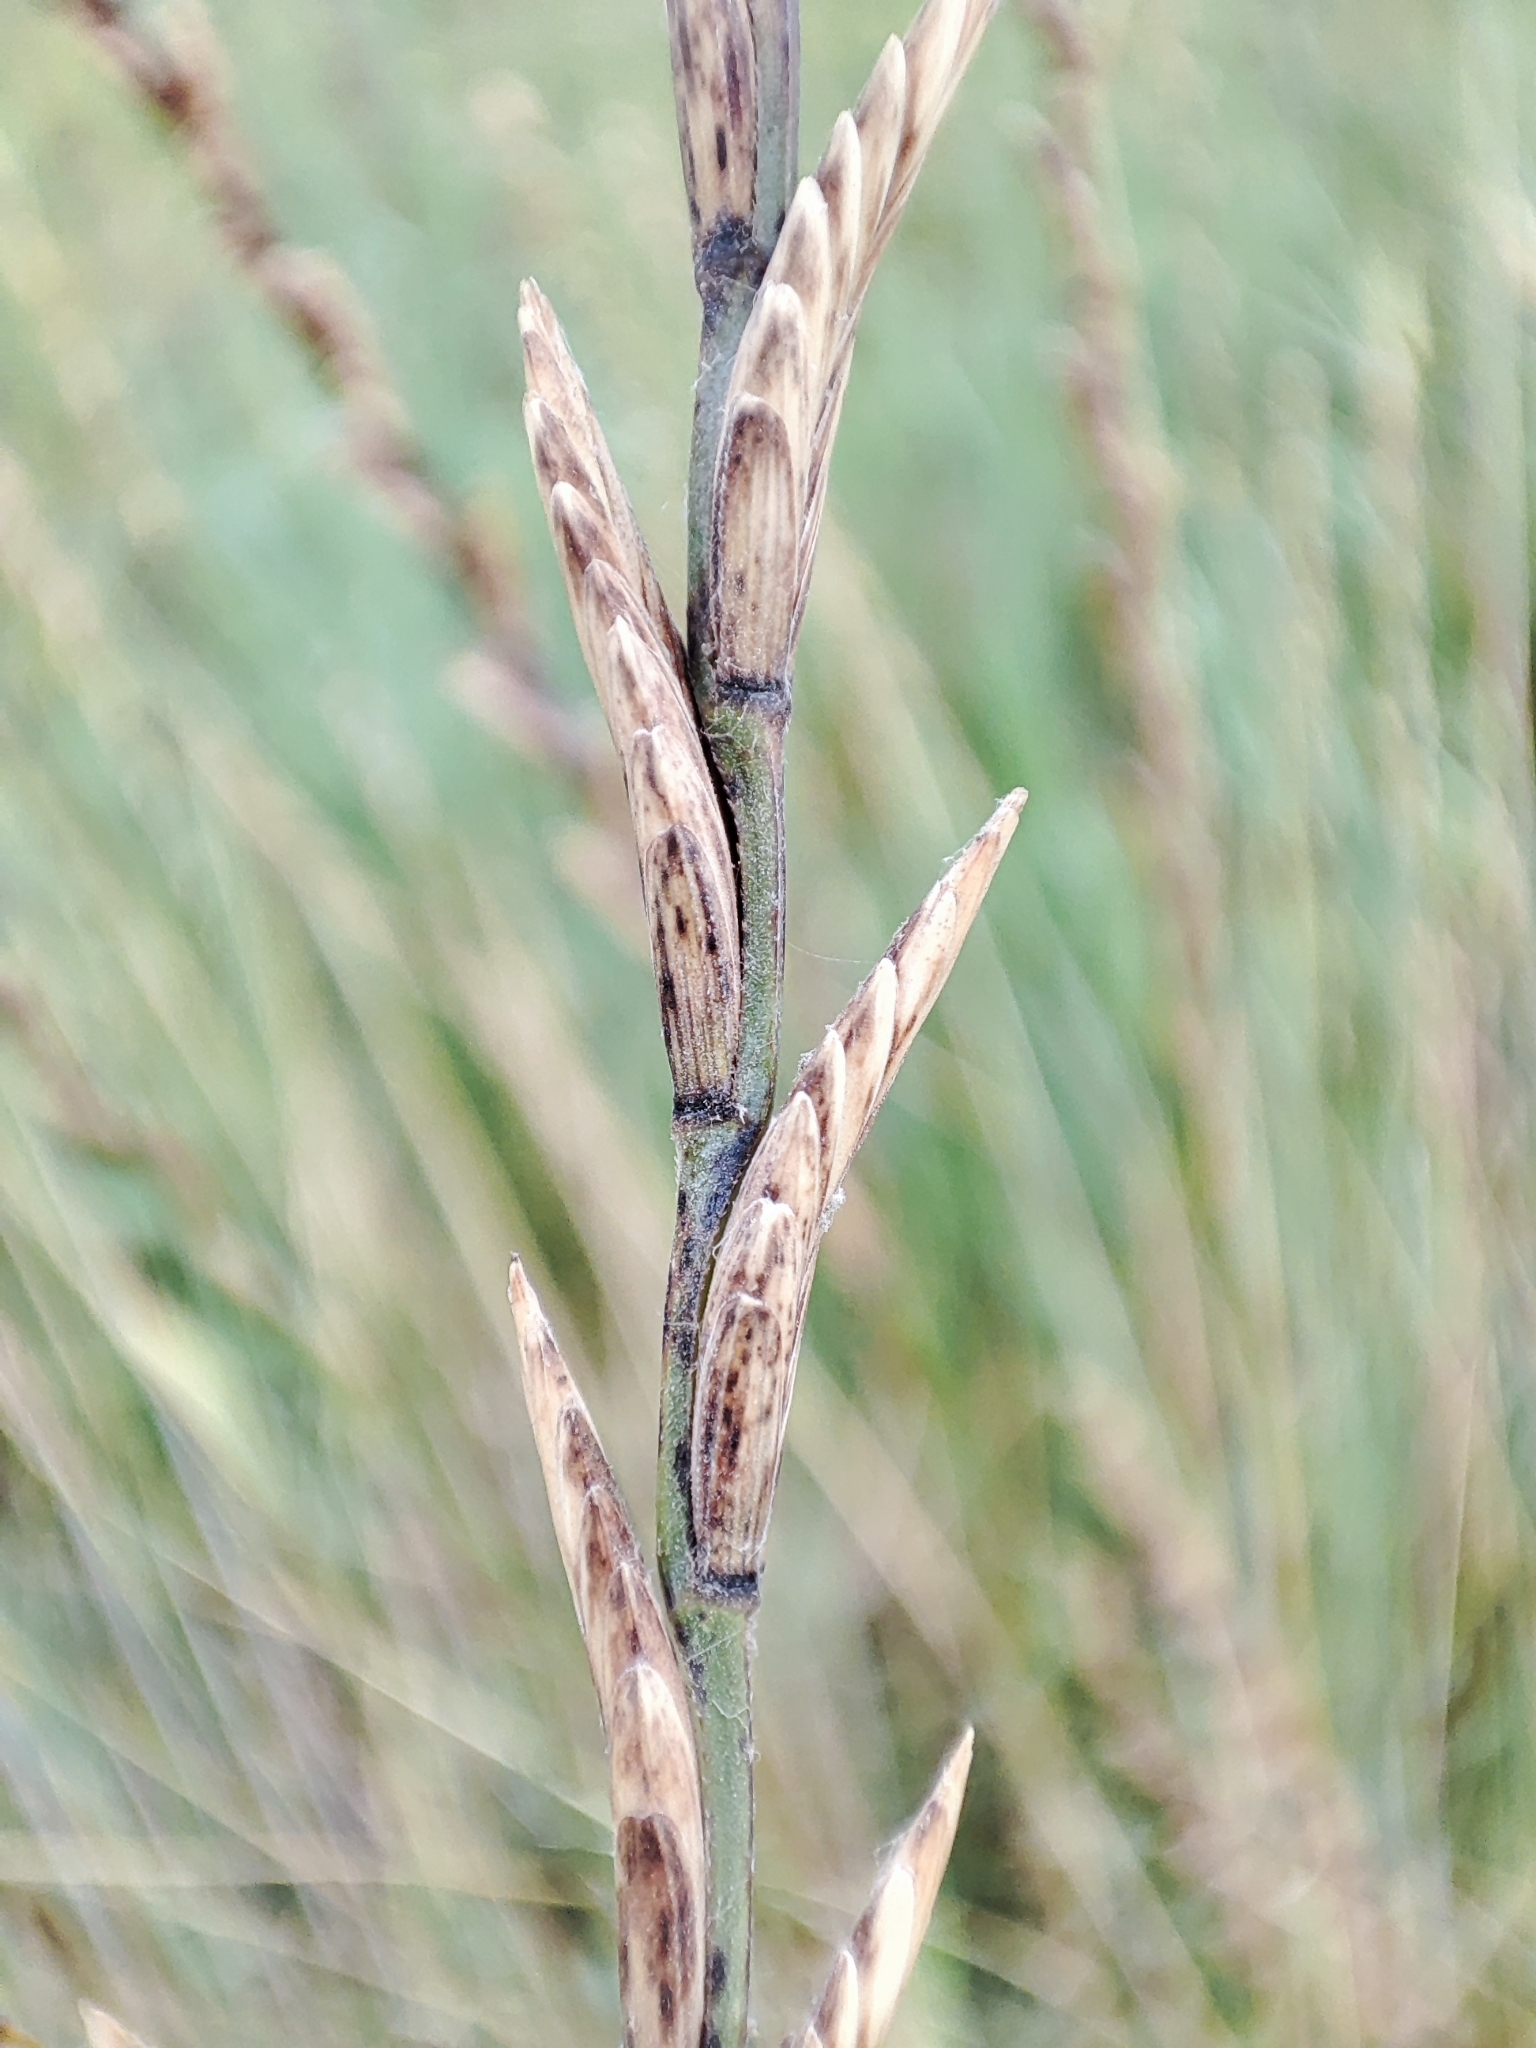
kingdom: Plantae
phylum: Tracheophyta
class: Liliopsida
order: Poales
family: Poaceae
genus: Thinopyrum
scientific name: Thinopyrum elongatum
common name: Tall wheatgrass
